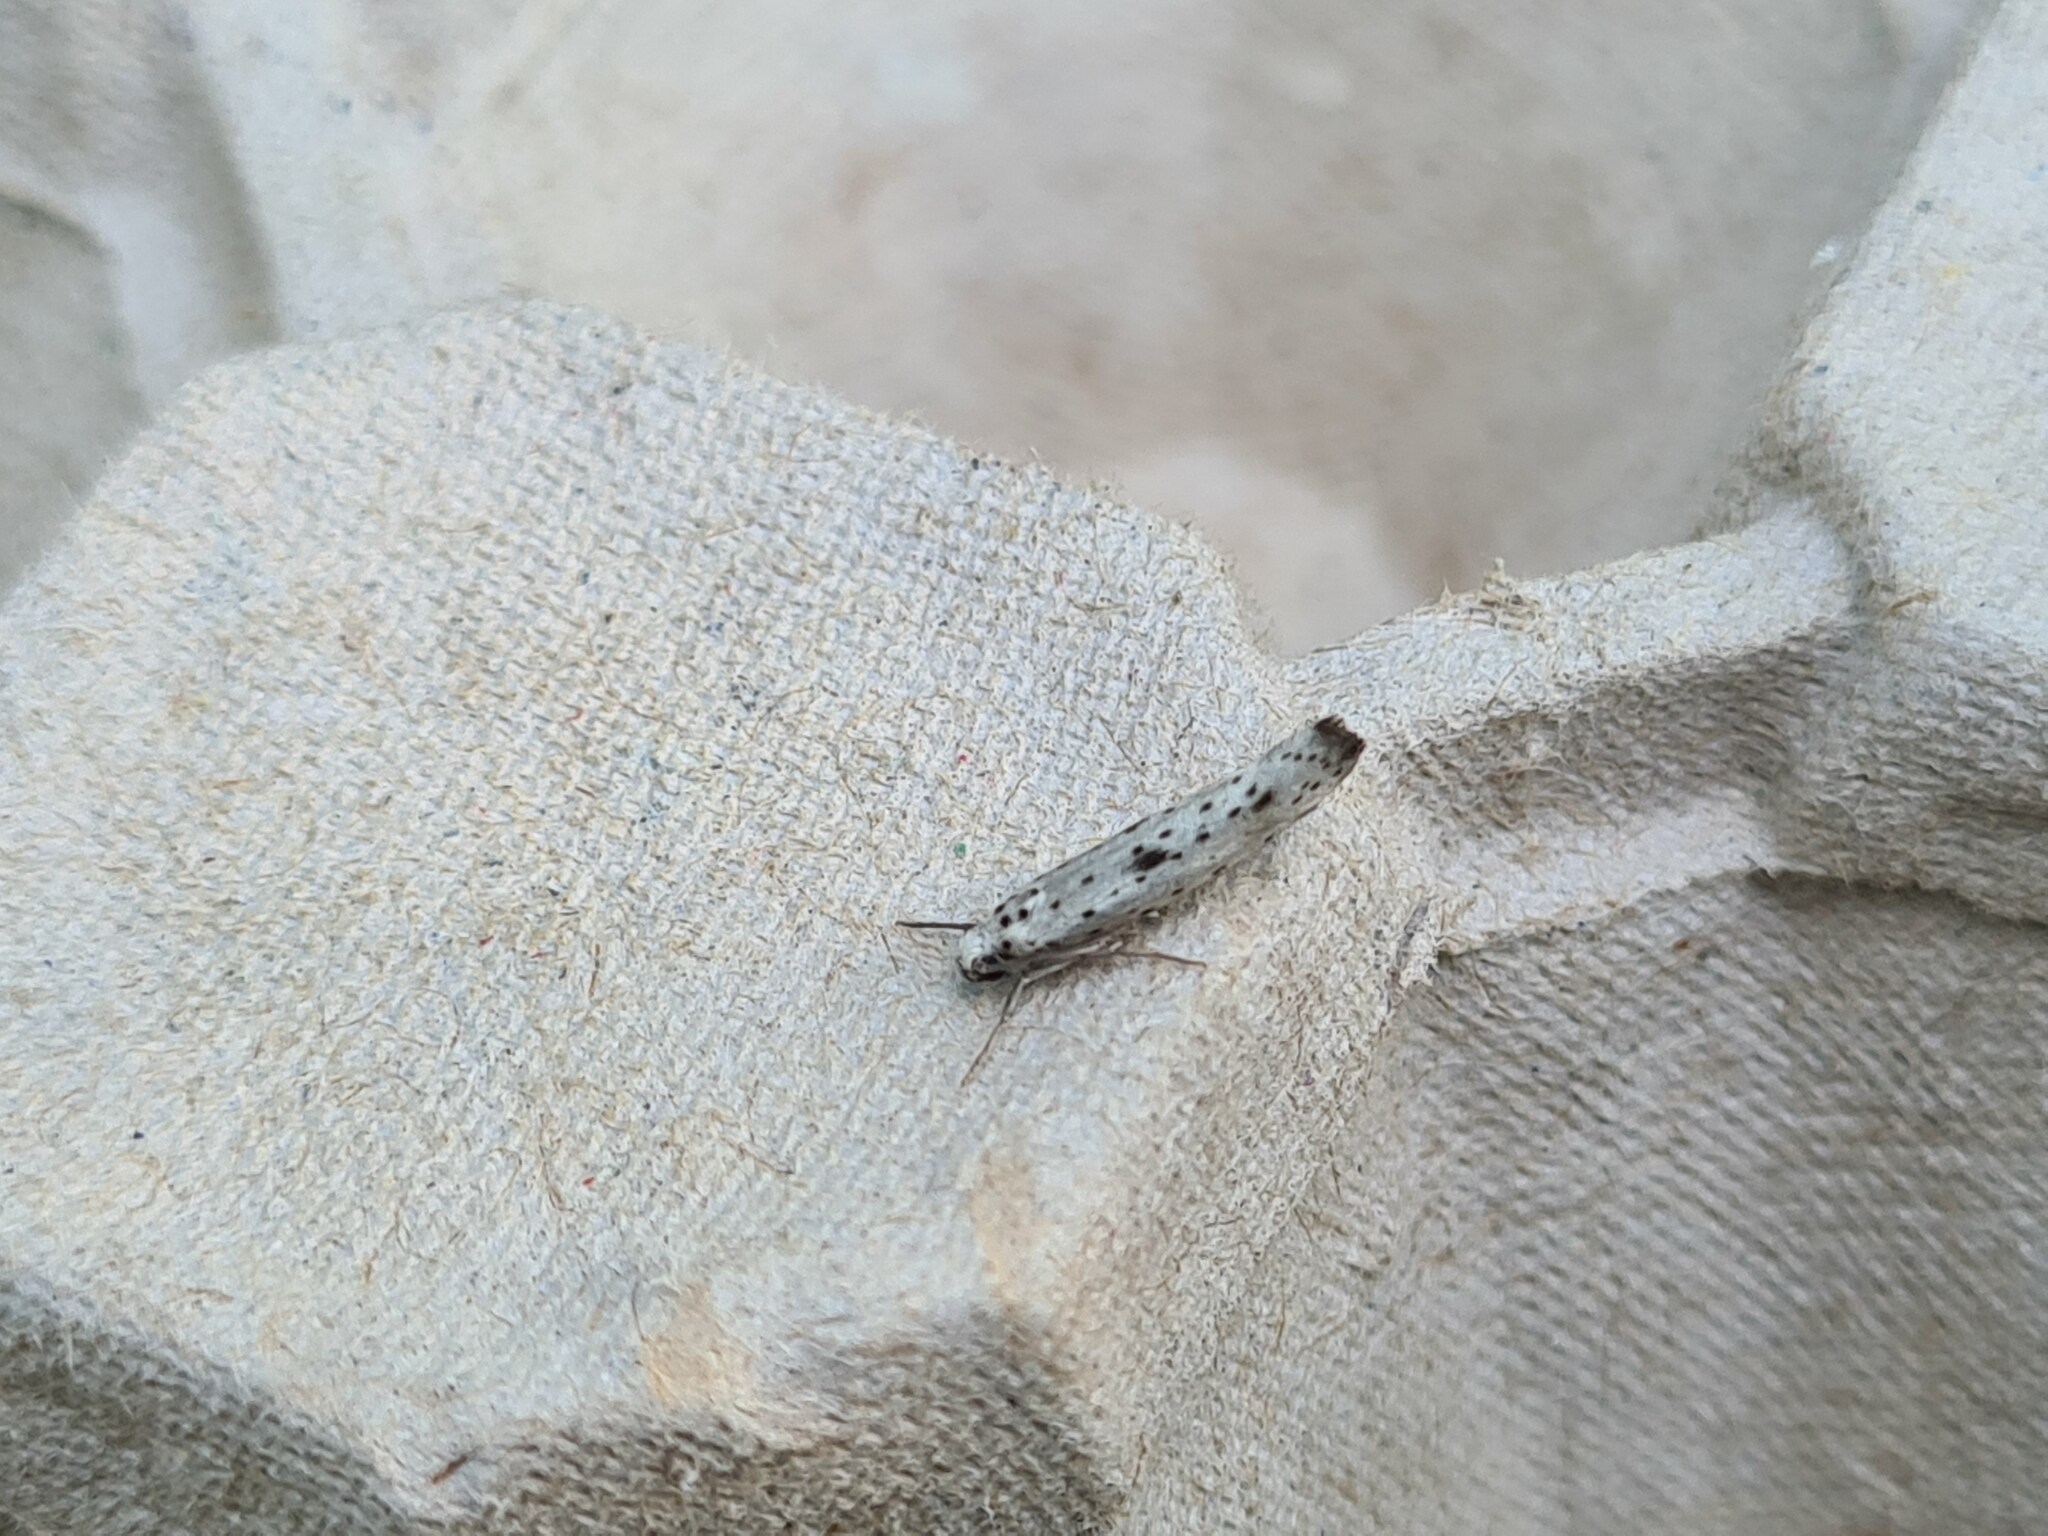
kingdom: Animalia
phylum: Arthropoda
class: Insecta
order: Lepidoptera
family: Yponomeutidae
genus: Yponomeuta
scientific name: Yponomeuta plumbella
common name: Black-tipped ermine
